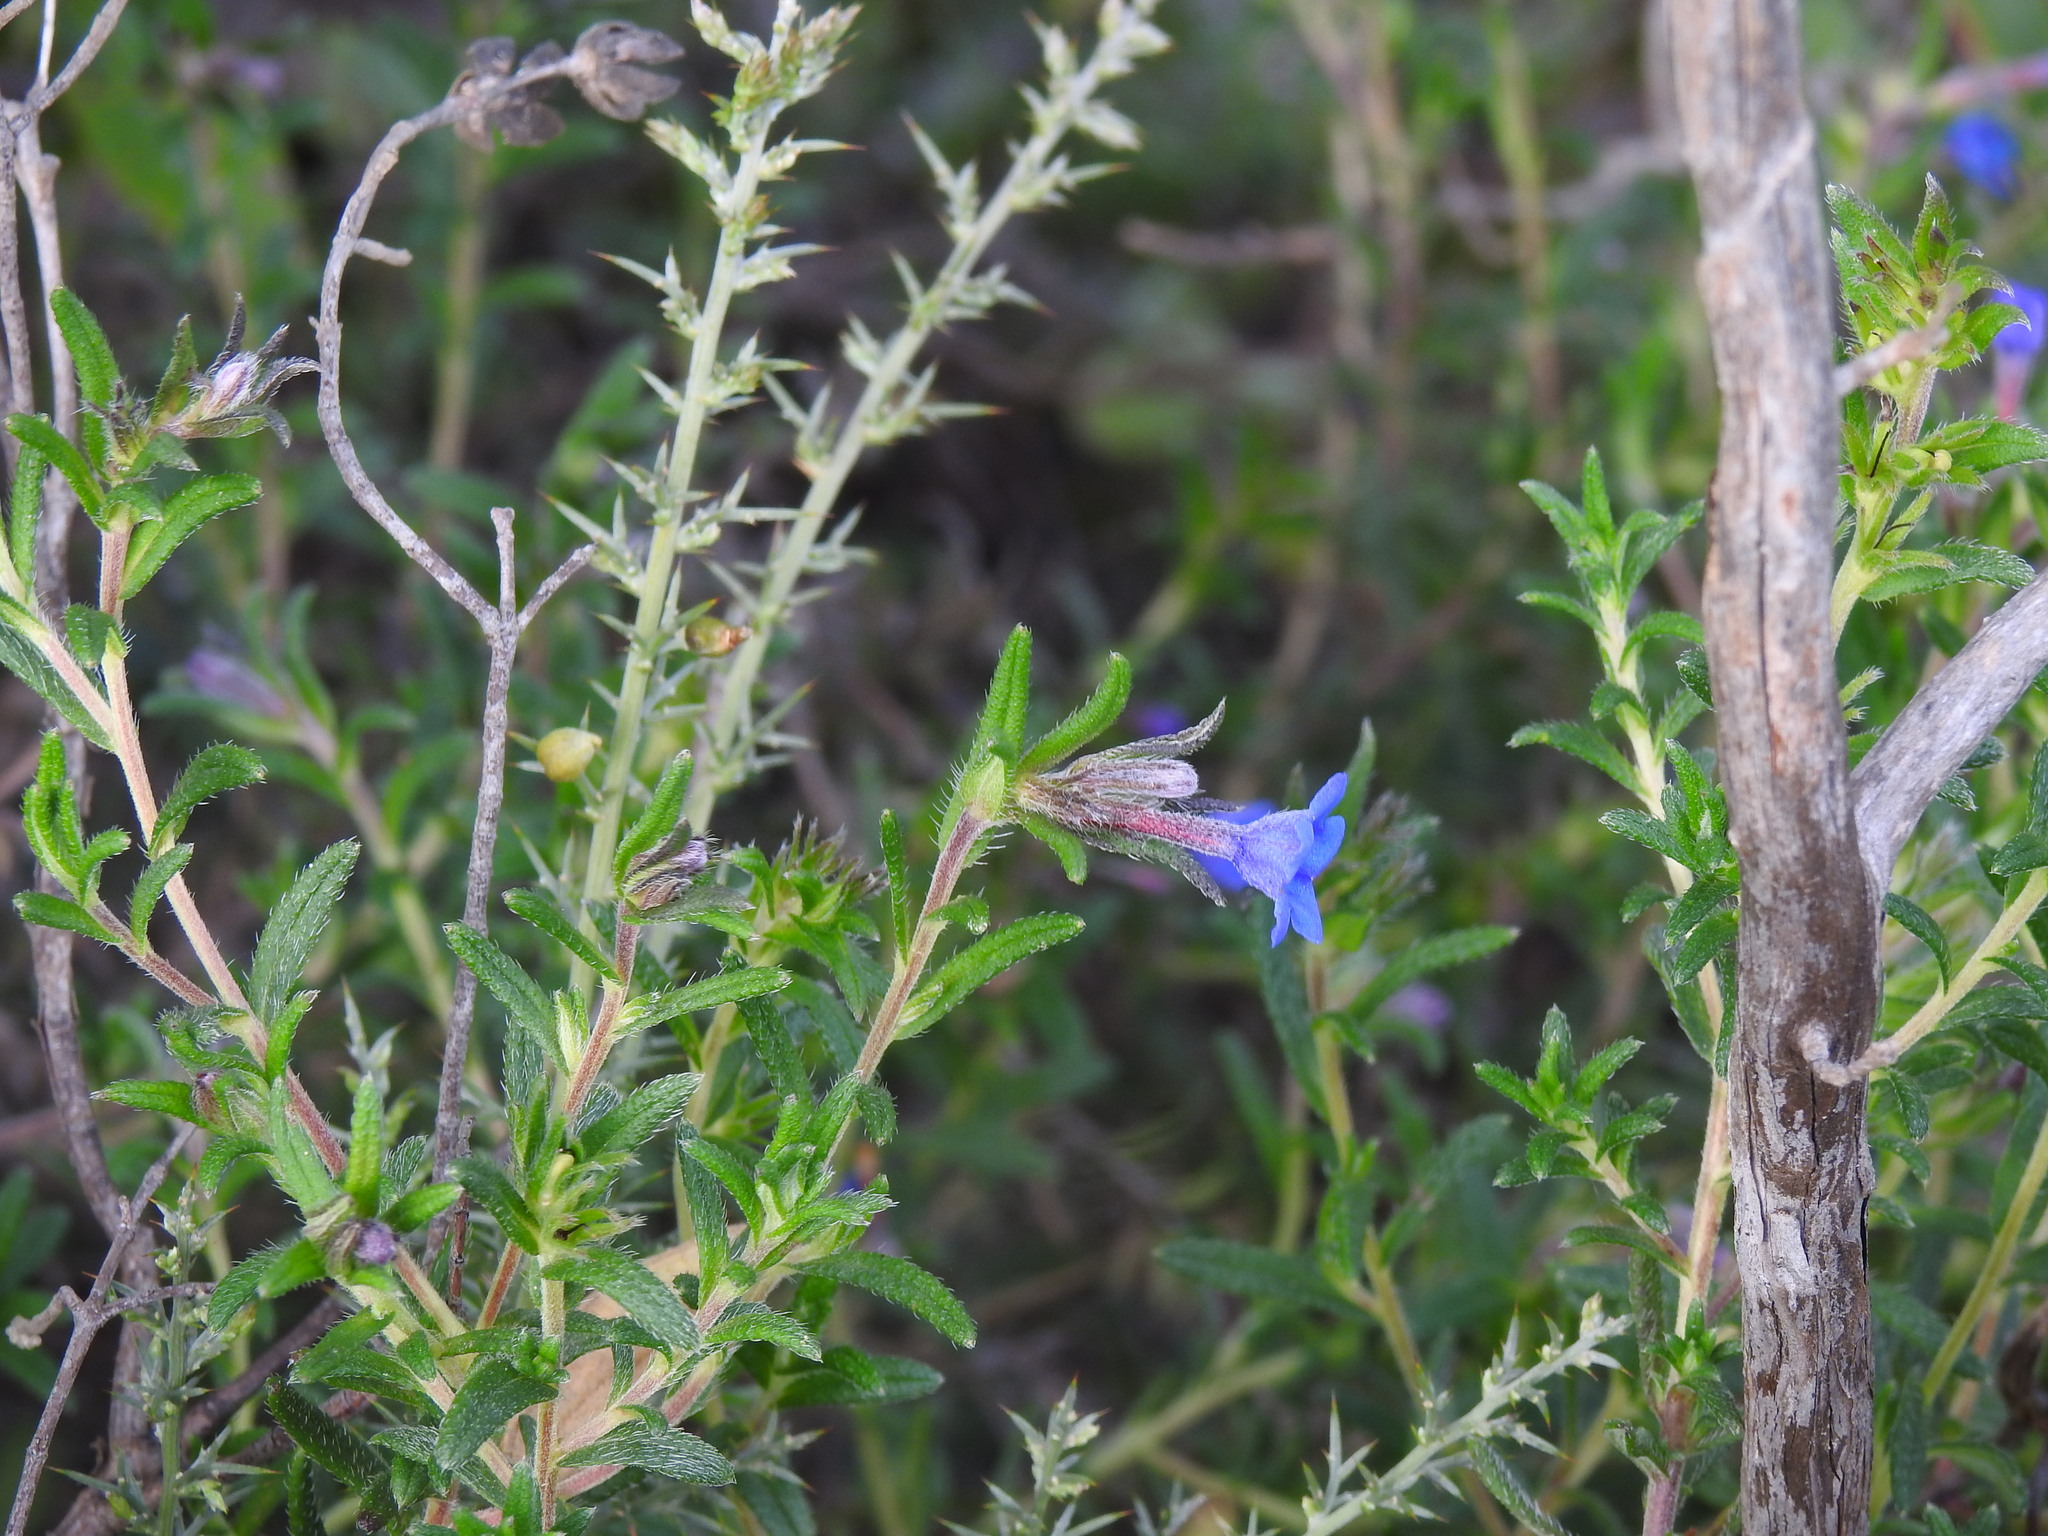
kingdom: Plantae
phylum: Tracheophyta
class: Magnoliopsida
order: Boraginales
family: Boraginaceae
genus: Glandora
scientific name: Glandora prostrata
